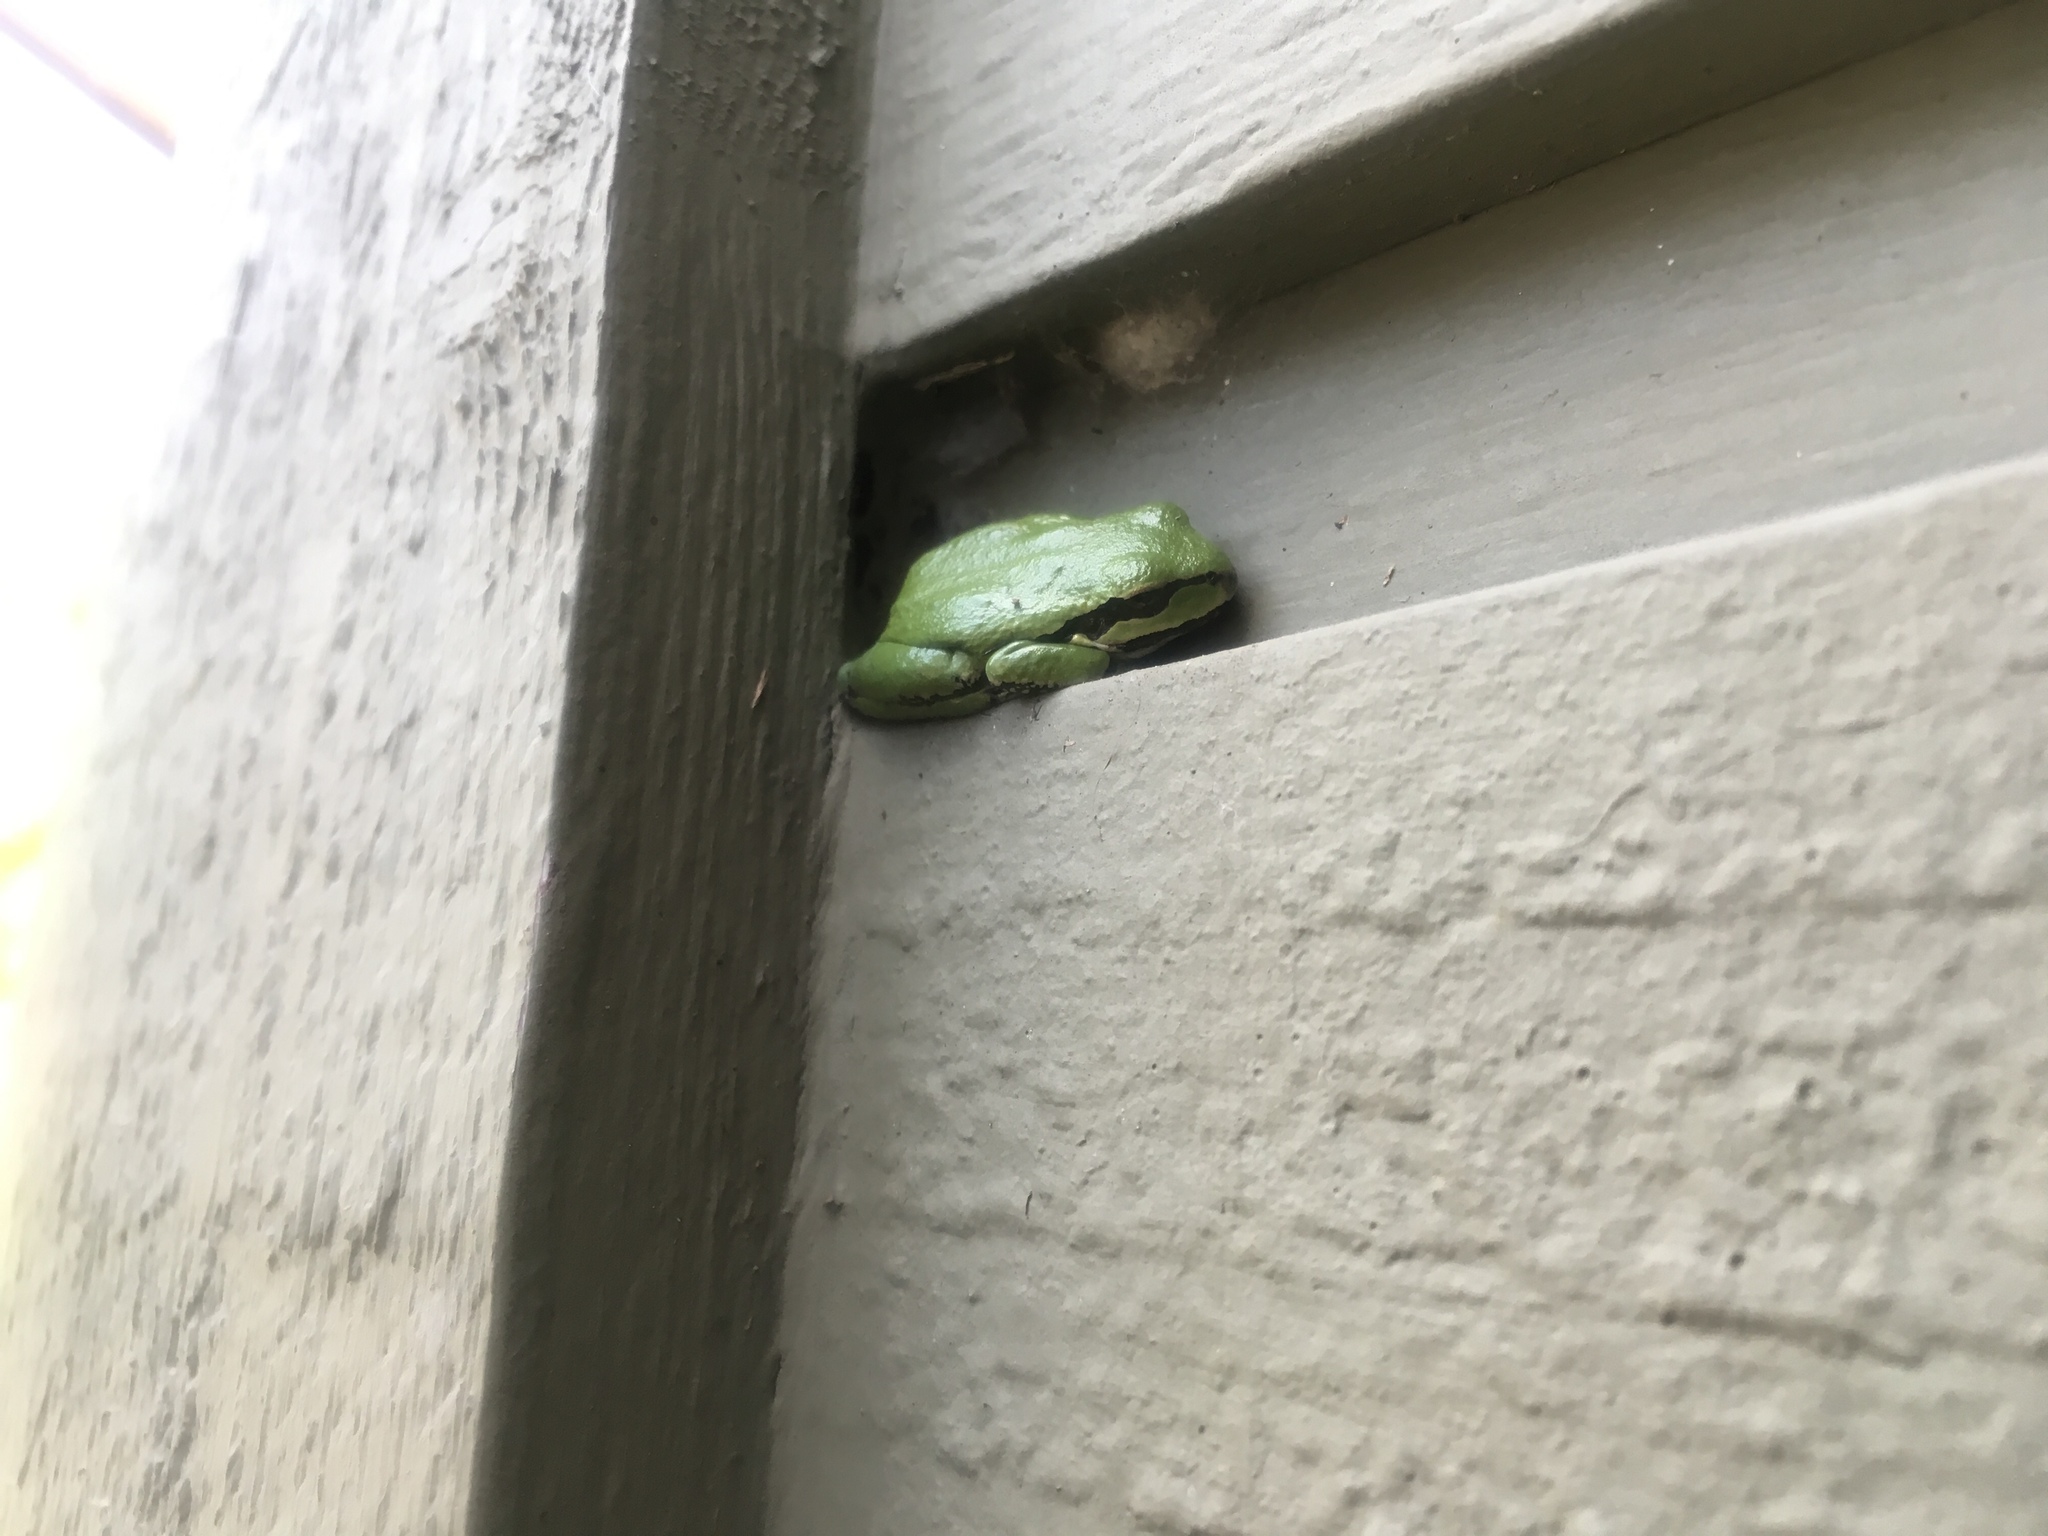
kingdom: Animalia
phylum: Chordata
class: Amphibia
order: Anura
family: Hylidae
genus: Pseudacris
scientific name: Pseudacris regilla
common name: Pacific chorus frog
